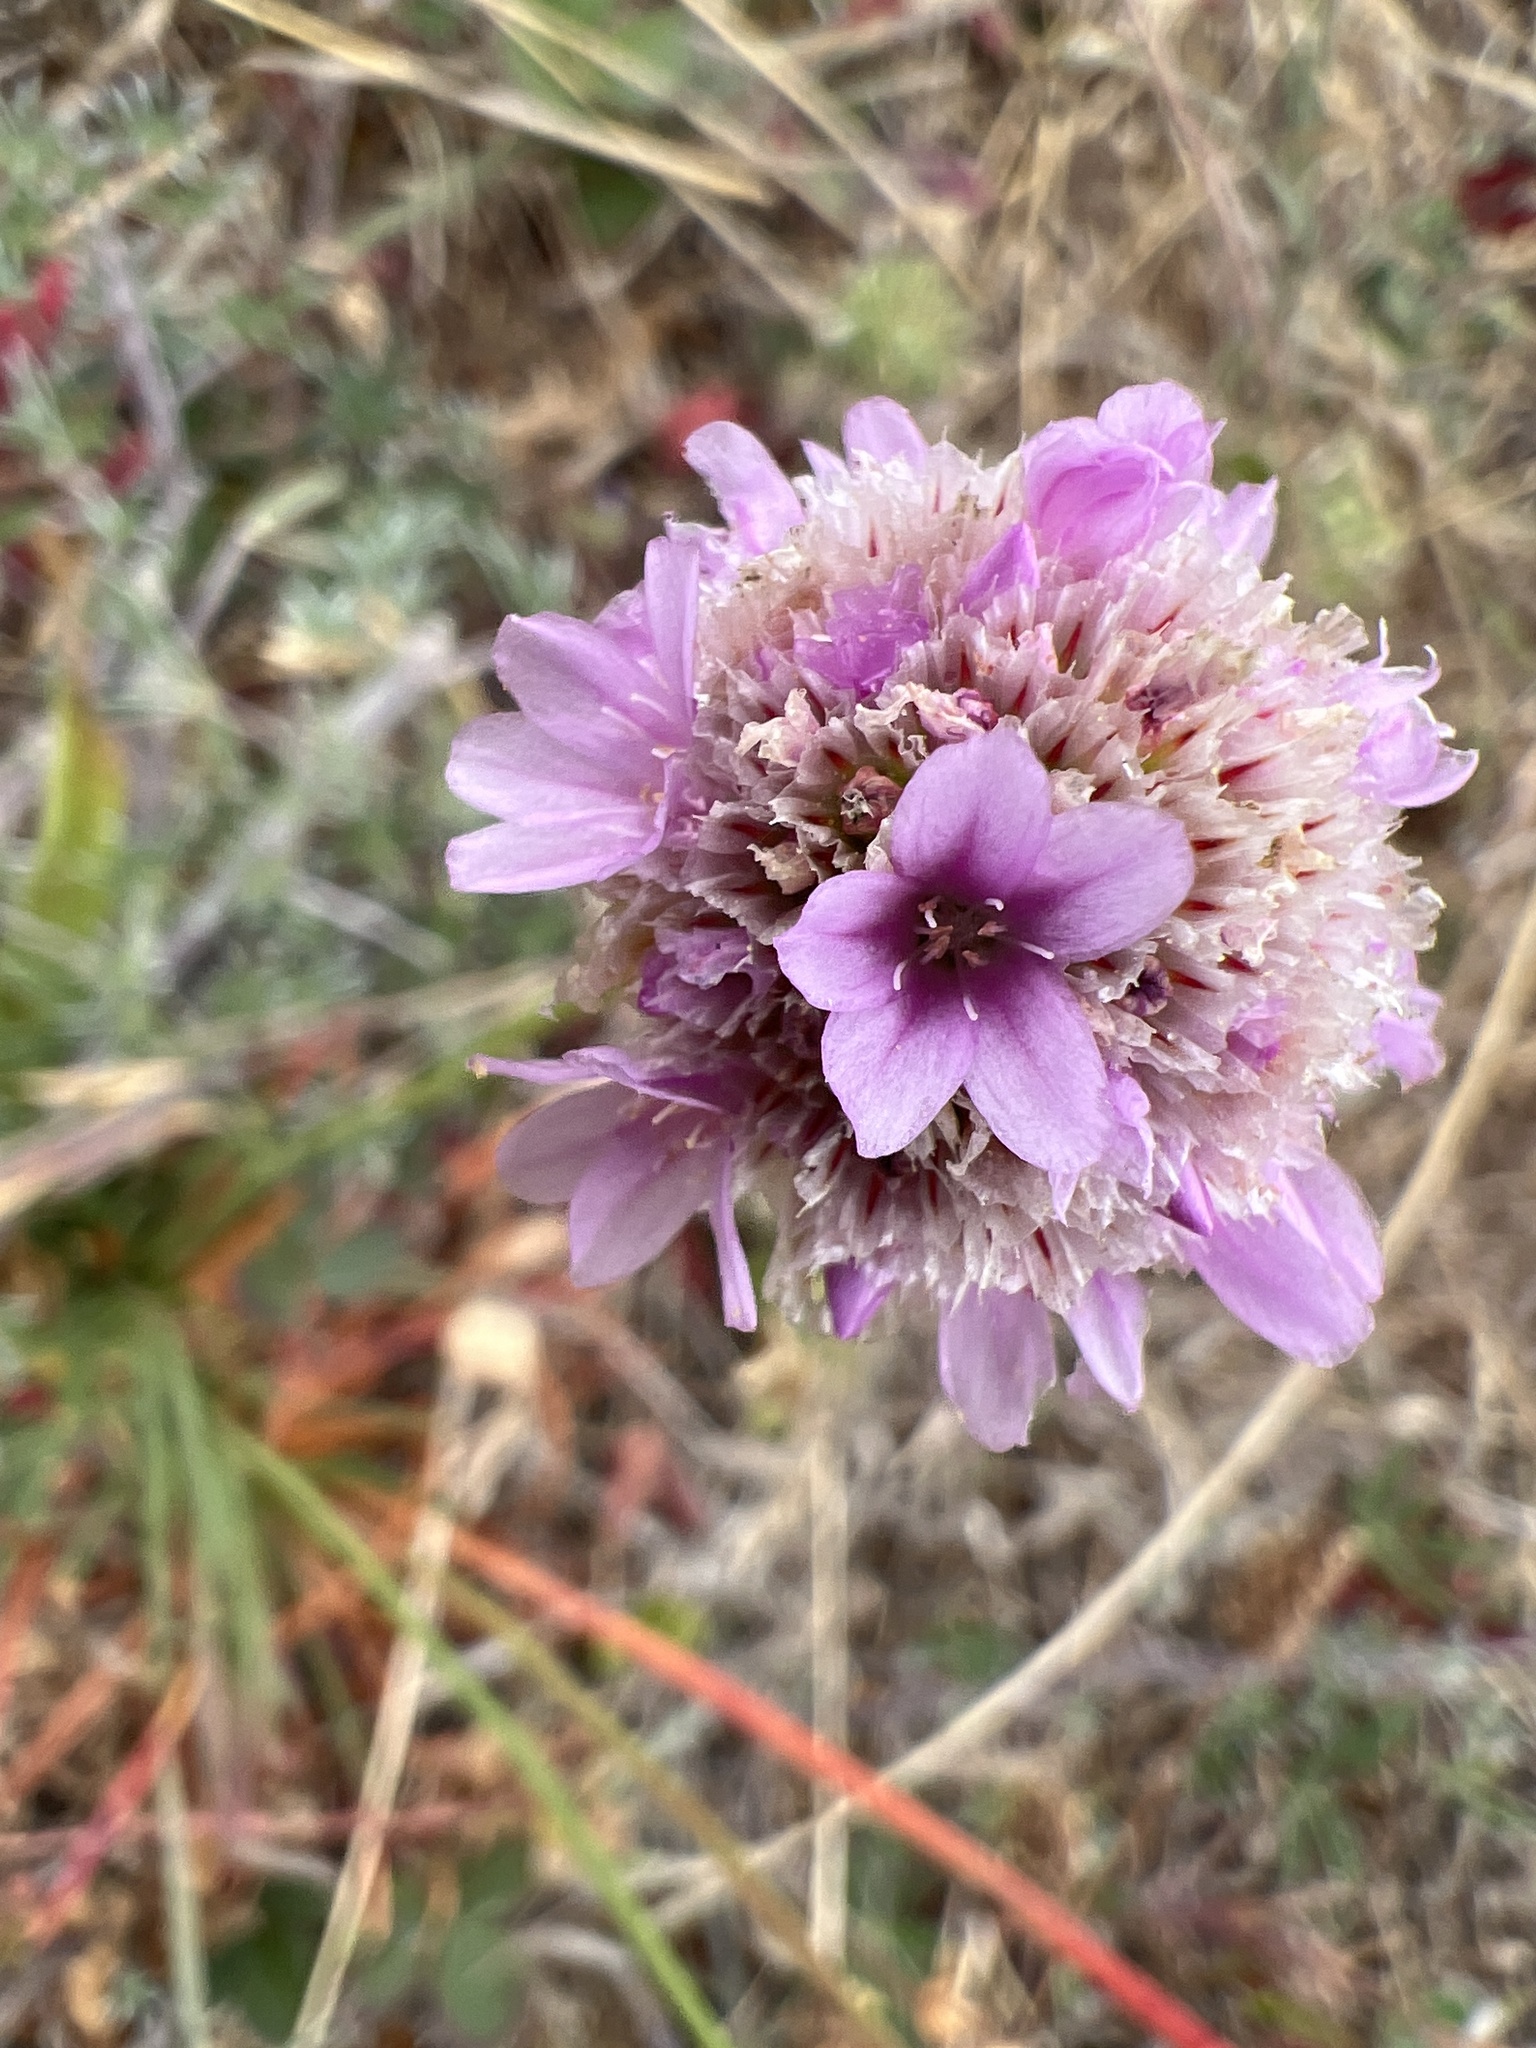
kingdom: Plantae
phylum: Tracheophyta
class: Magnoliopsida
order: Caryophyllales
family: Plumbaginaceae
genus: Armeria
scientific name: Armeria maritima
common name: Thrift
